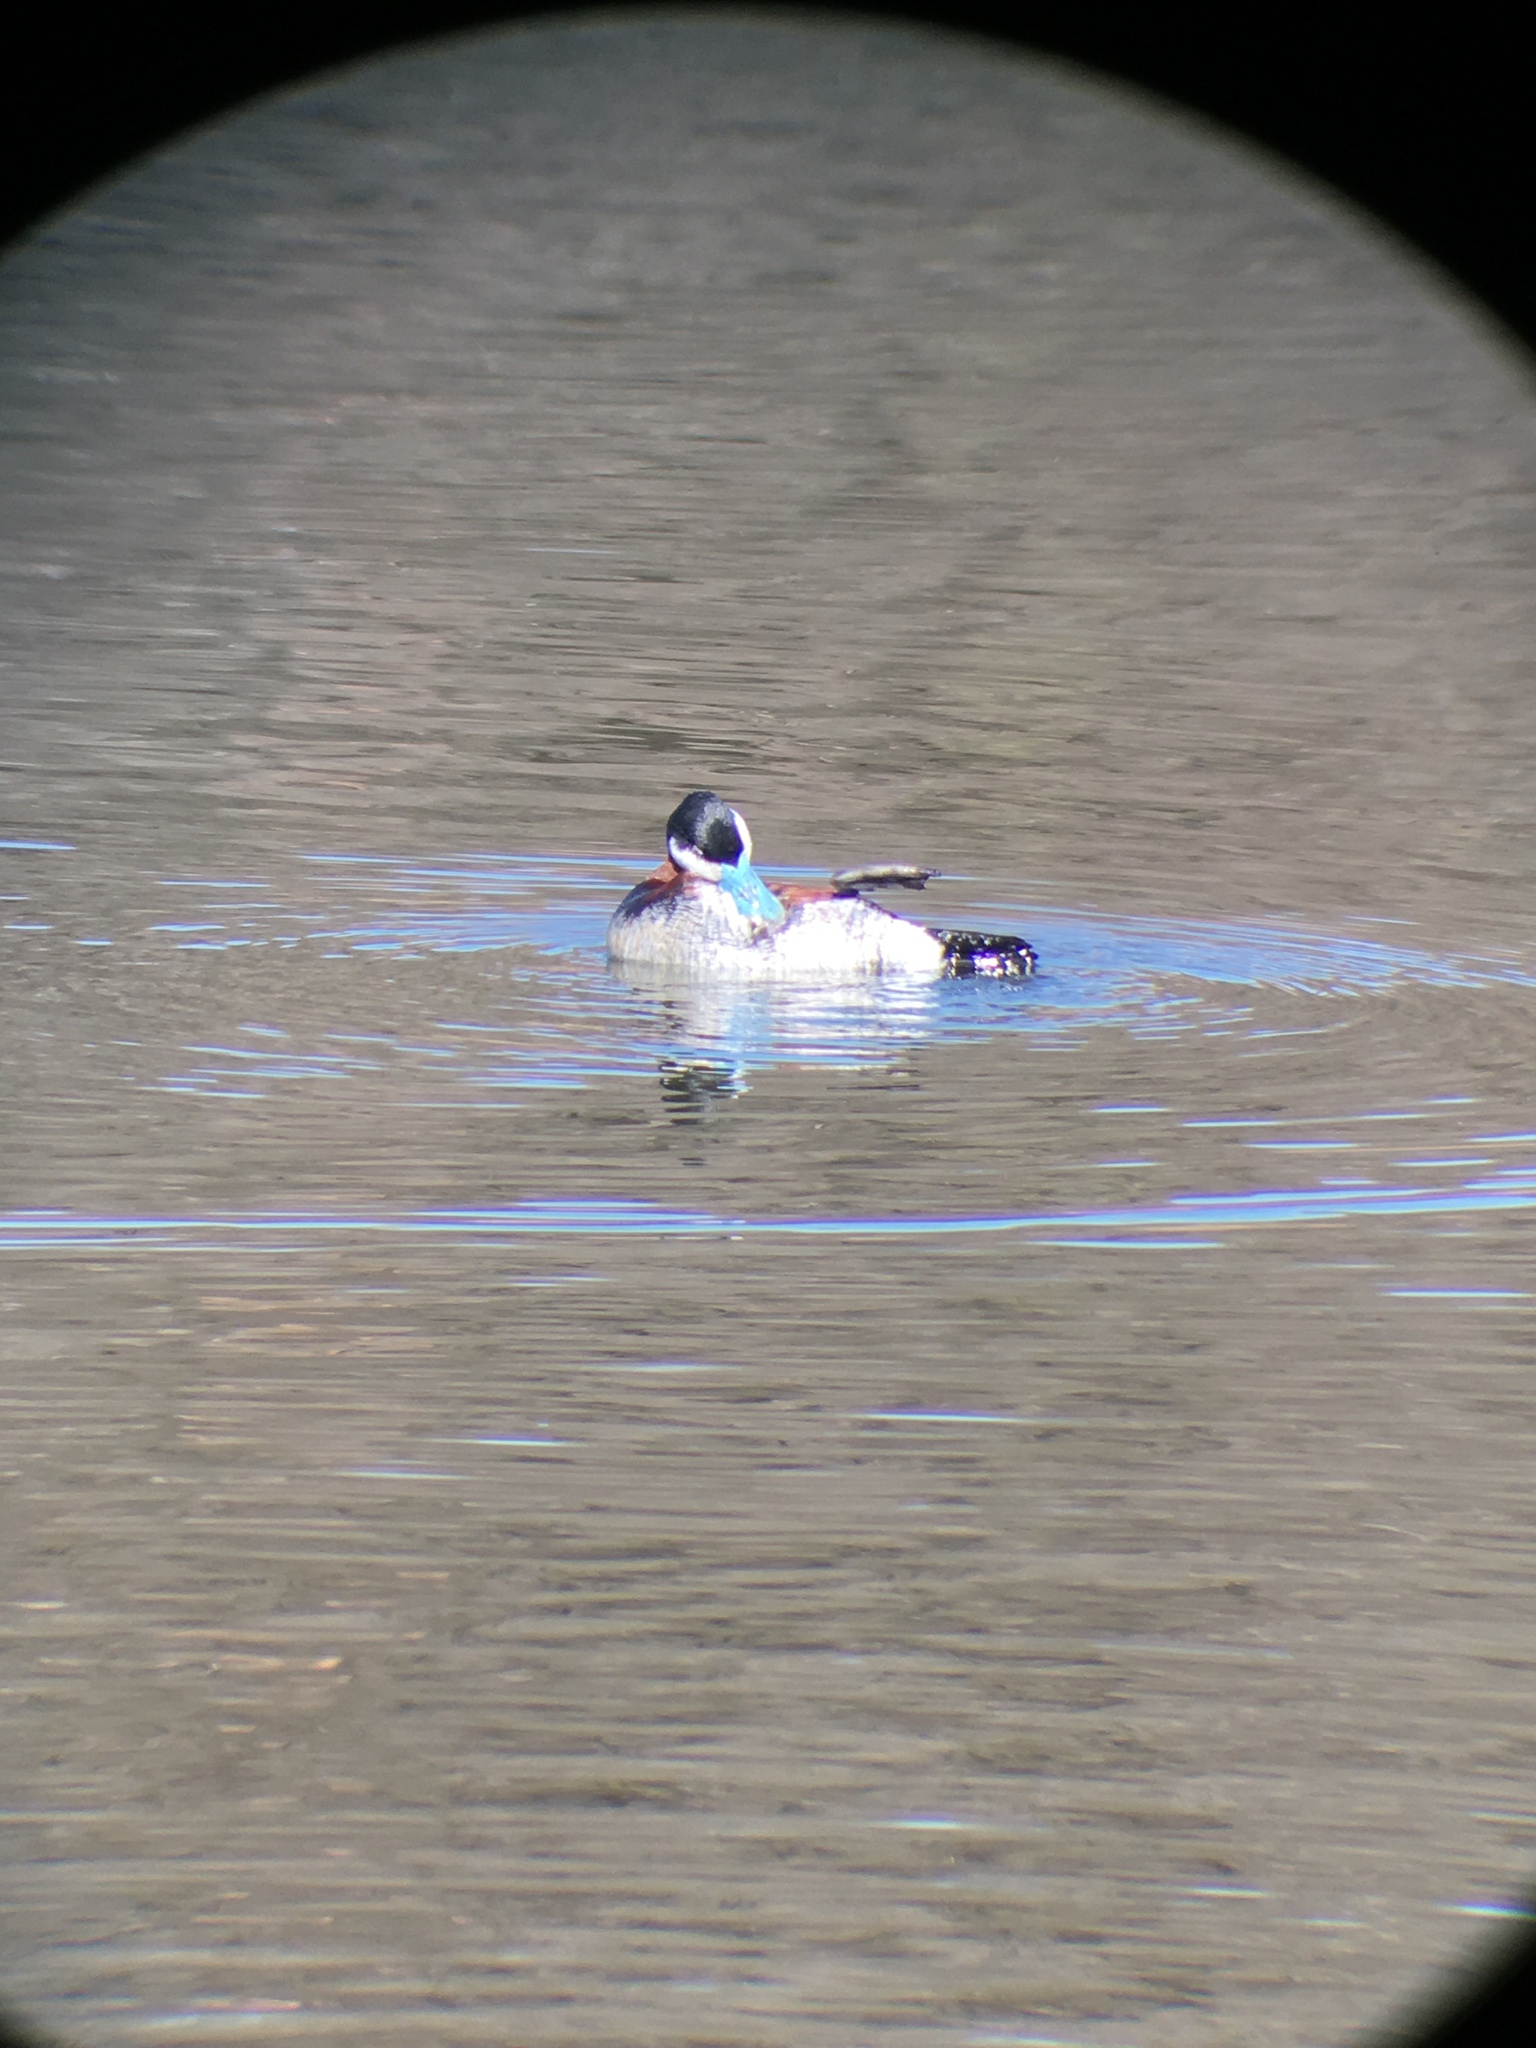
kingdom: Animalia
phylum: Chordata
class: Aves
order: Anseriformes
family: Anatidae
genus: Oxyura
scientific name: Oxyura jamaicensis
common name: Ruddy duck
